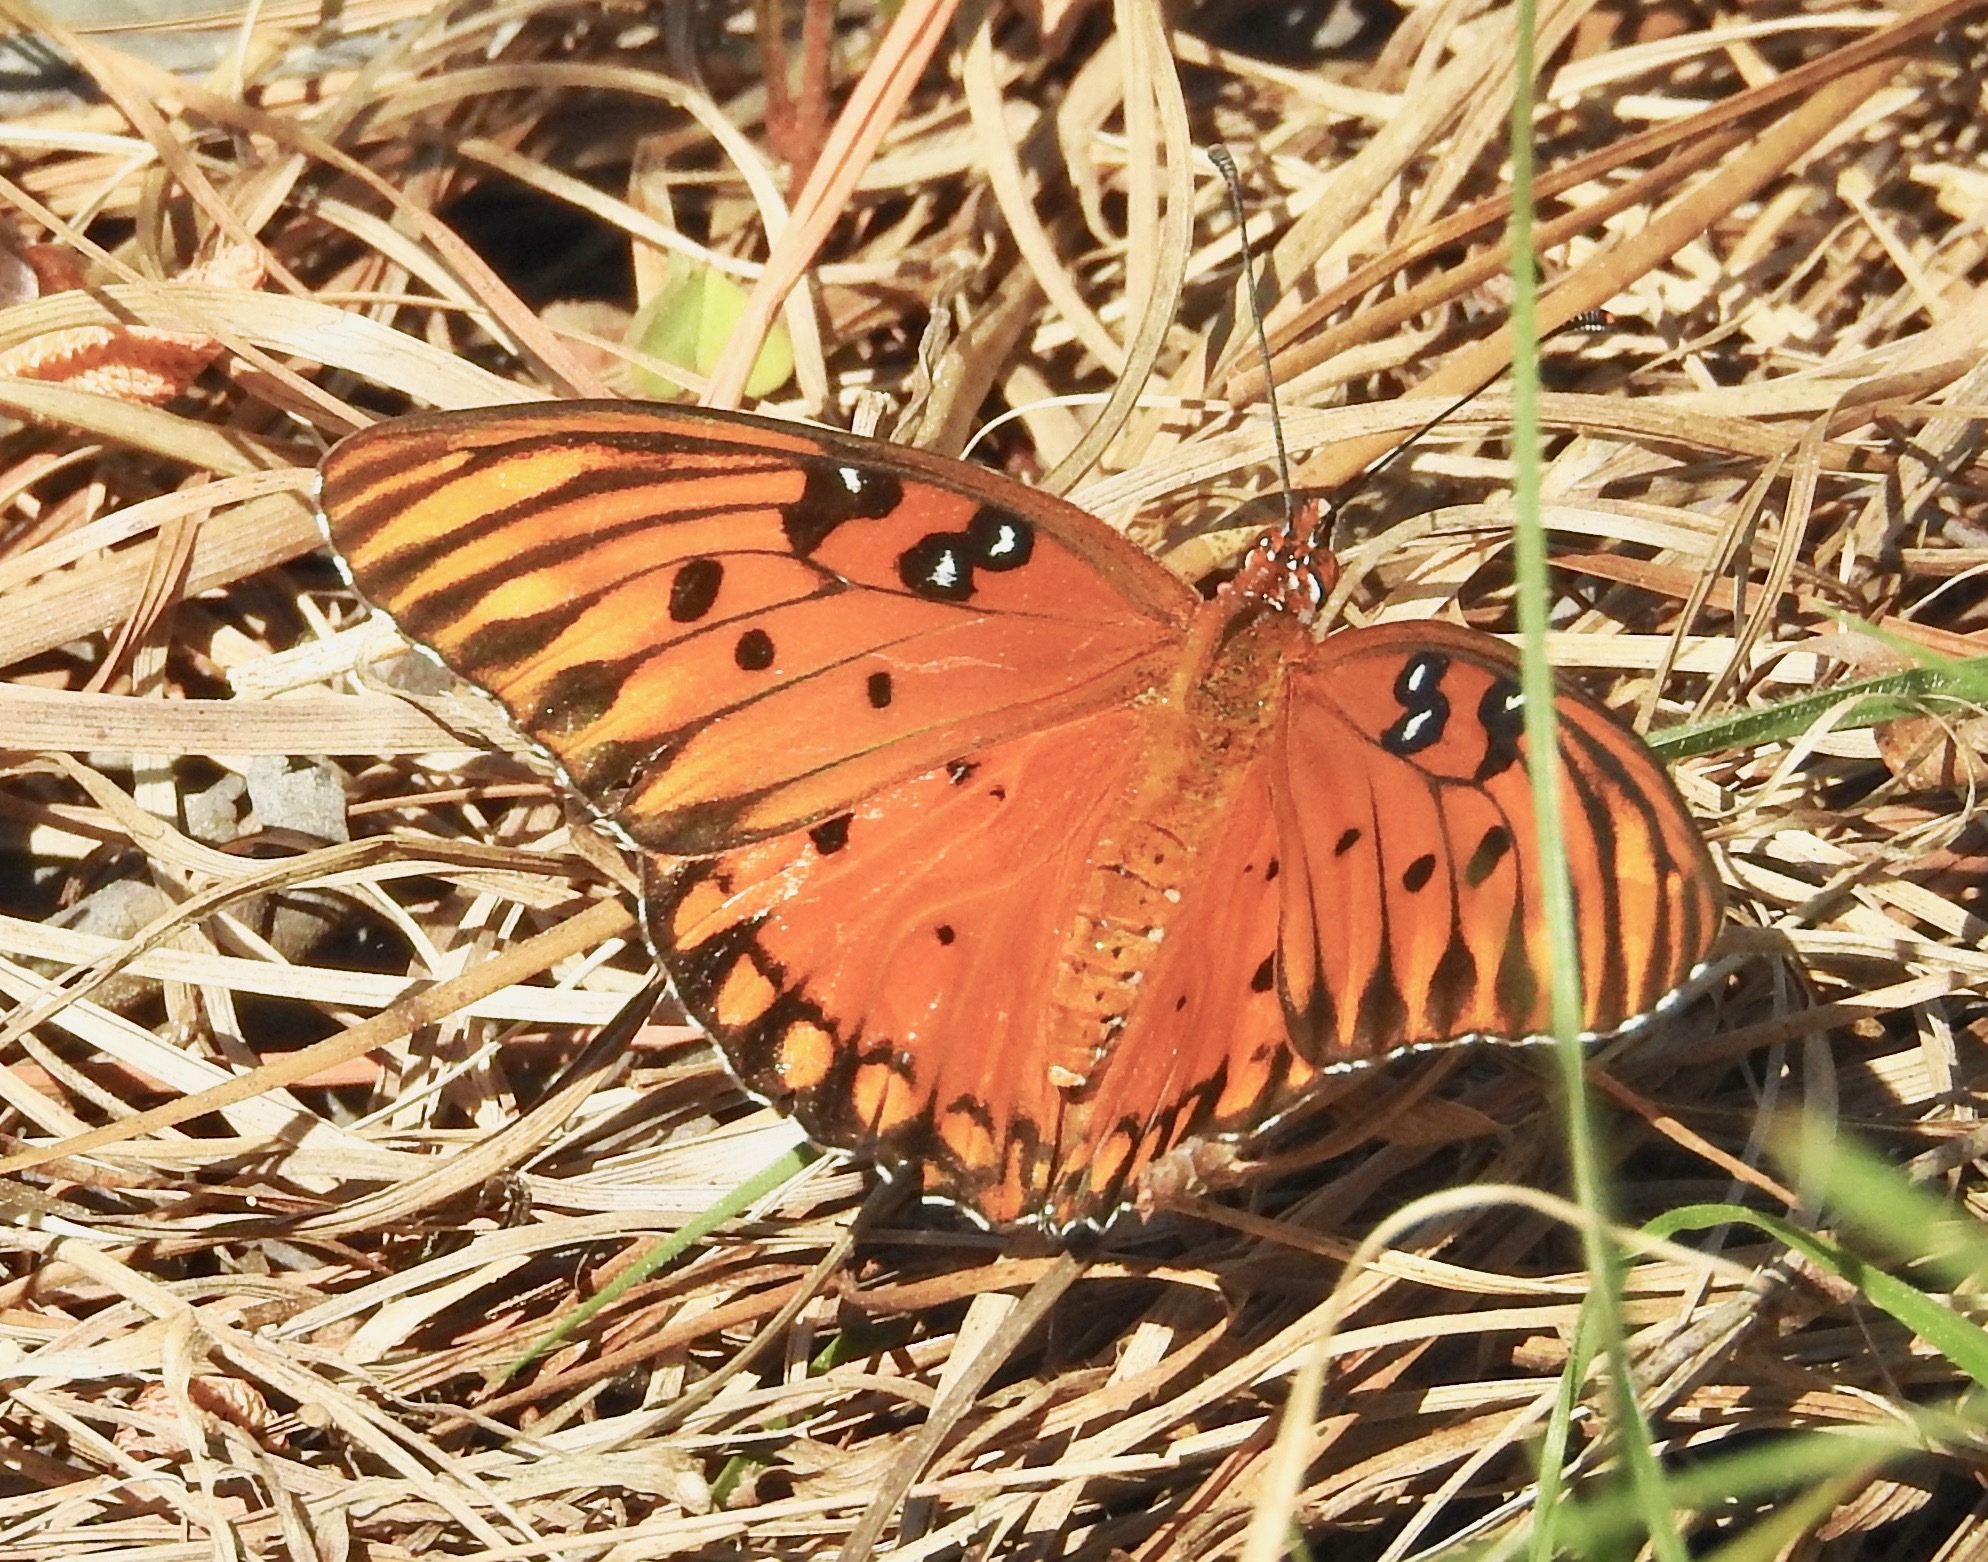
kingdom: Animalia
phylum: Arthropoda
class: Insecta
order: Lepidoptera
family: Nymphalidae
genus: Dione
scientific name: Dione vanillae
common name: Gulf fritillary
